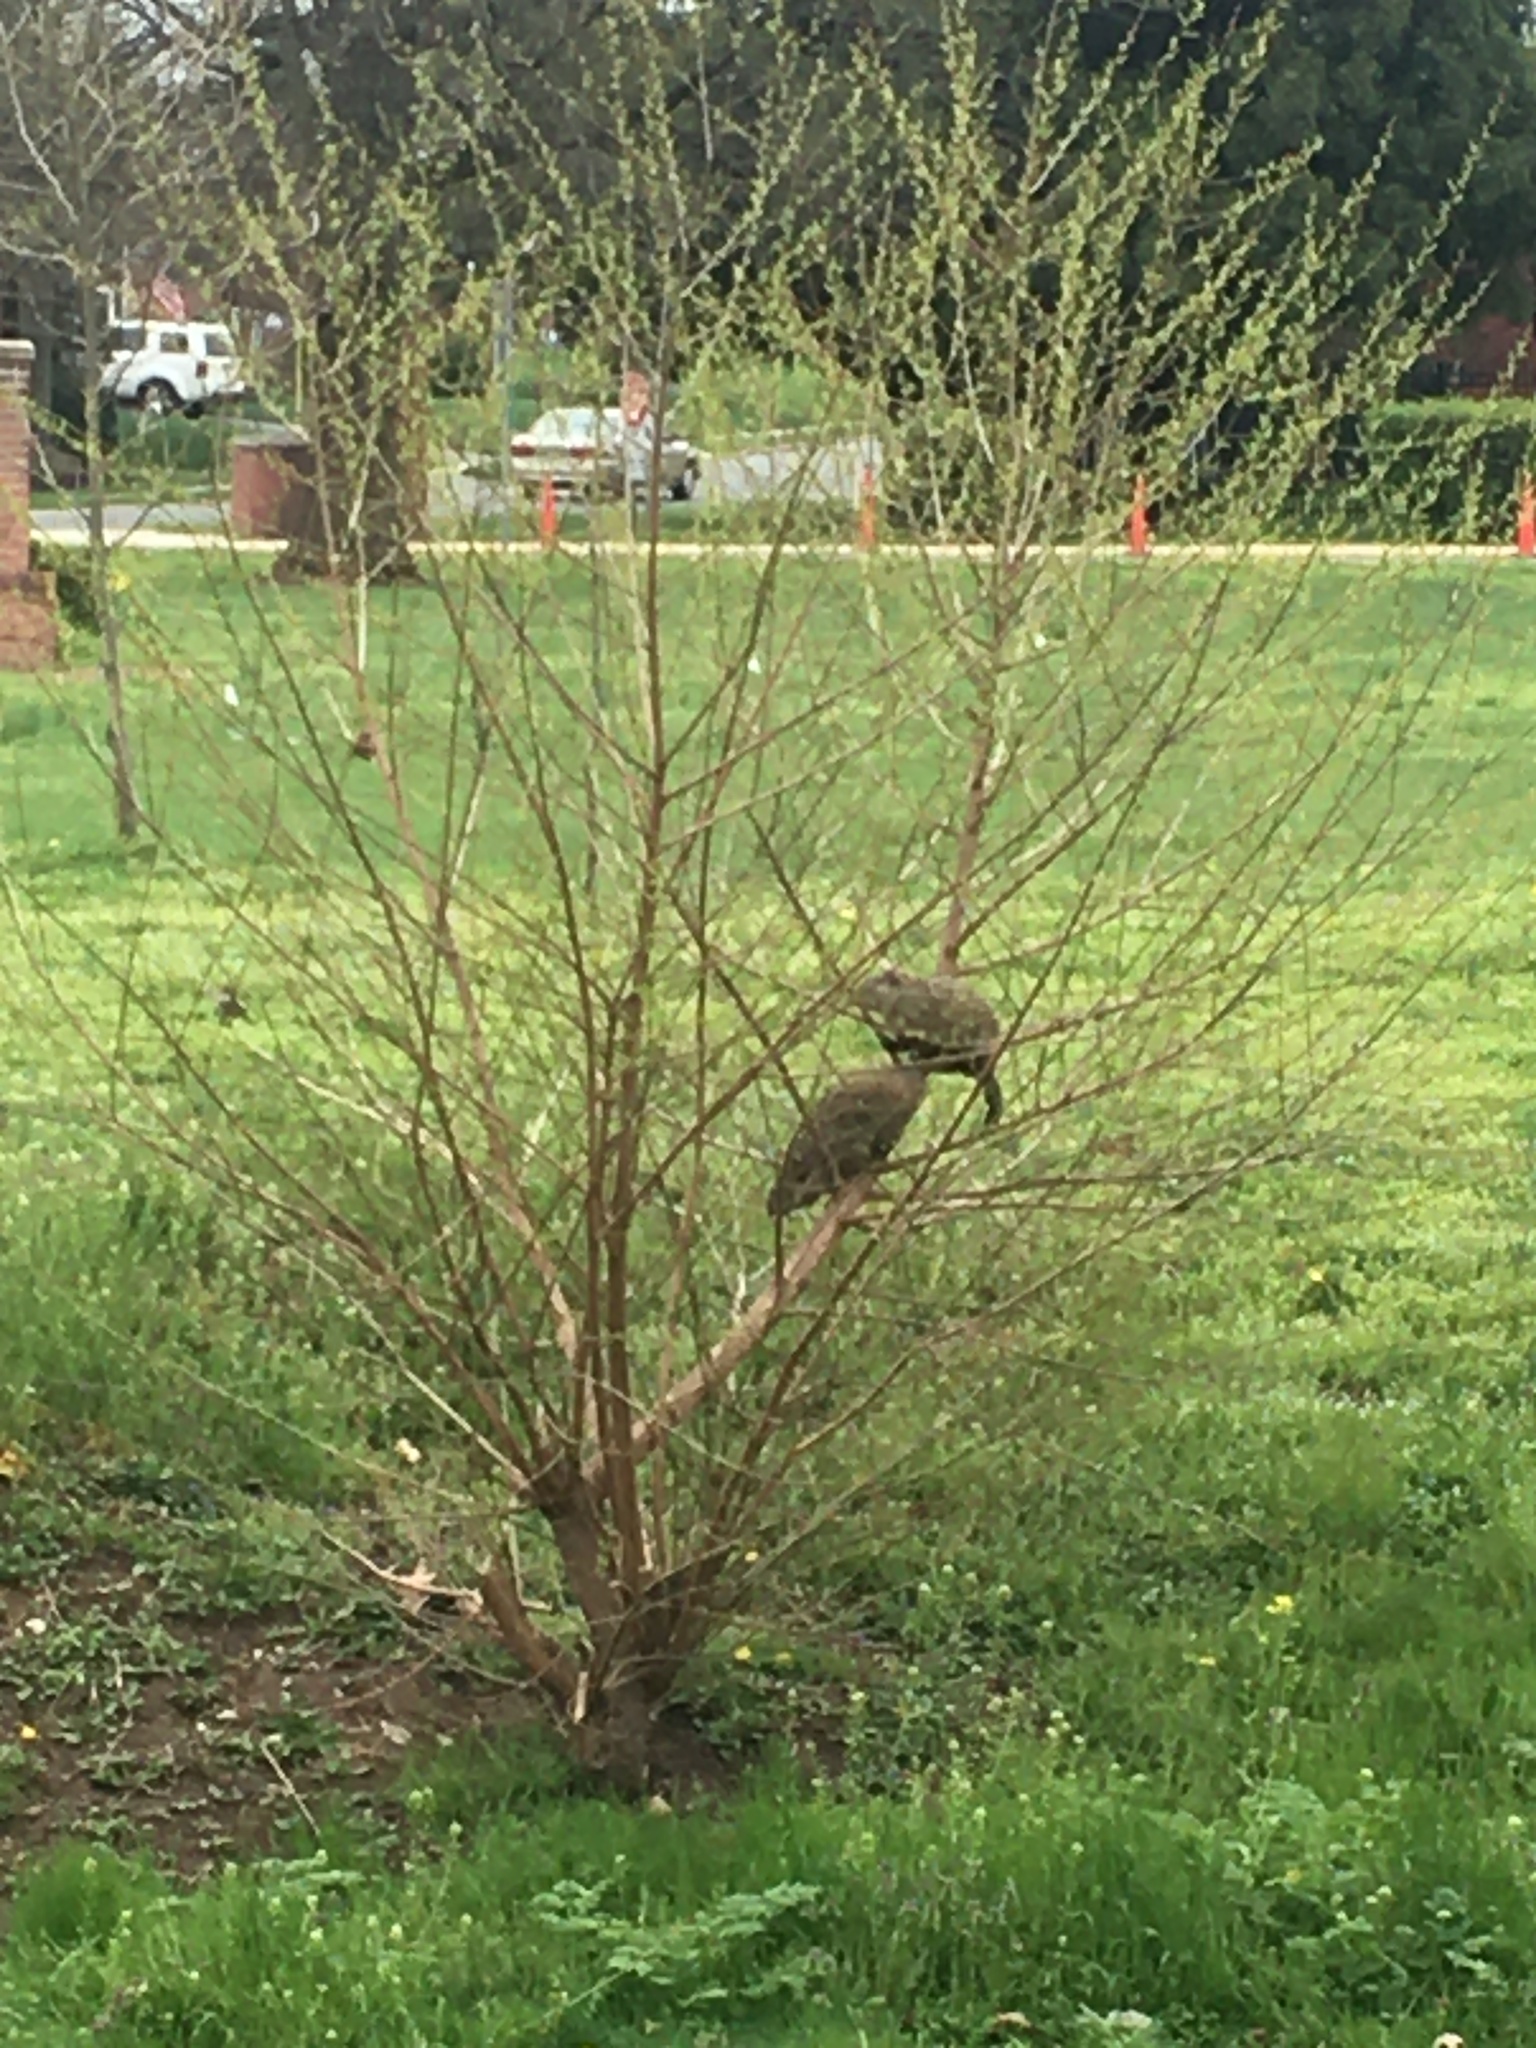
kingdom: Animalia
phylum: Chordata
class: Mammalia
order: Rodentia
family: Sciuridae
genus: Marmota
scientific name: Marmota monax
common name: Groundhog
